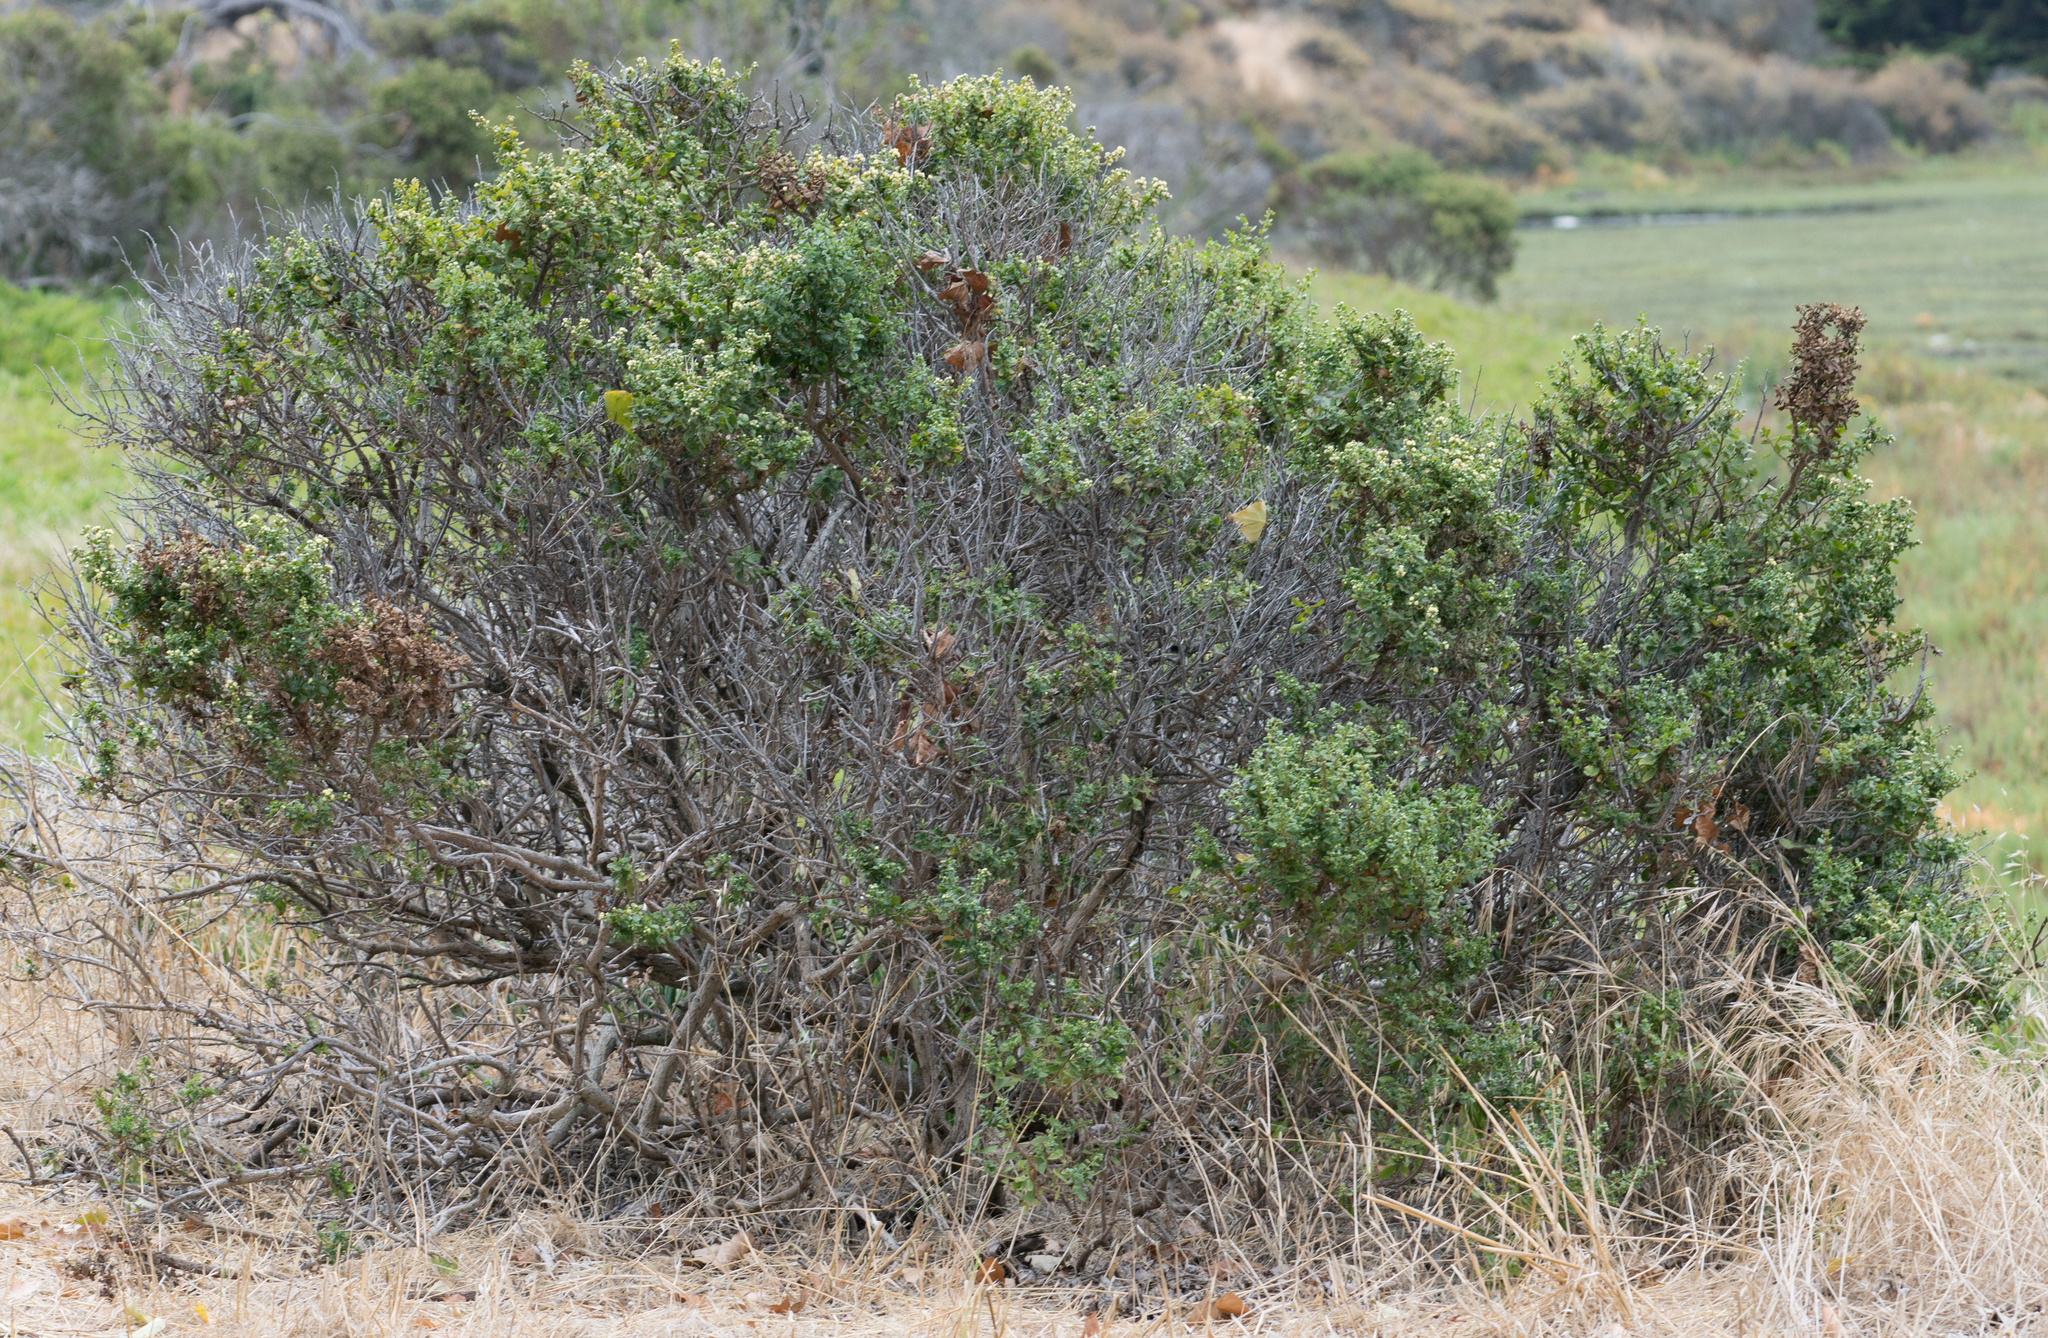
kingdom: Plantae
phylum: Tracheophyta
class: Magnoliopsida
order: Asterales
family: Asteraceae
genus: Baccharis
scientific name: Baccharis pilularis
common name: Coyotebrush
